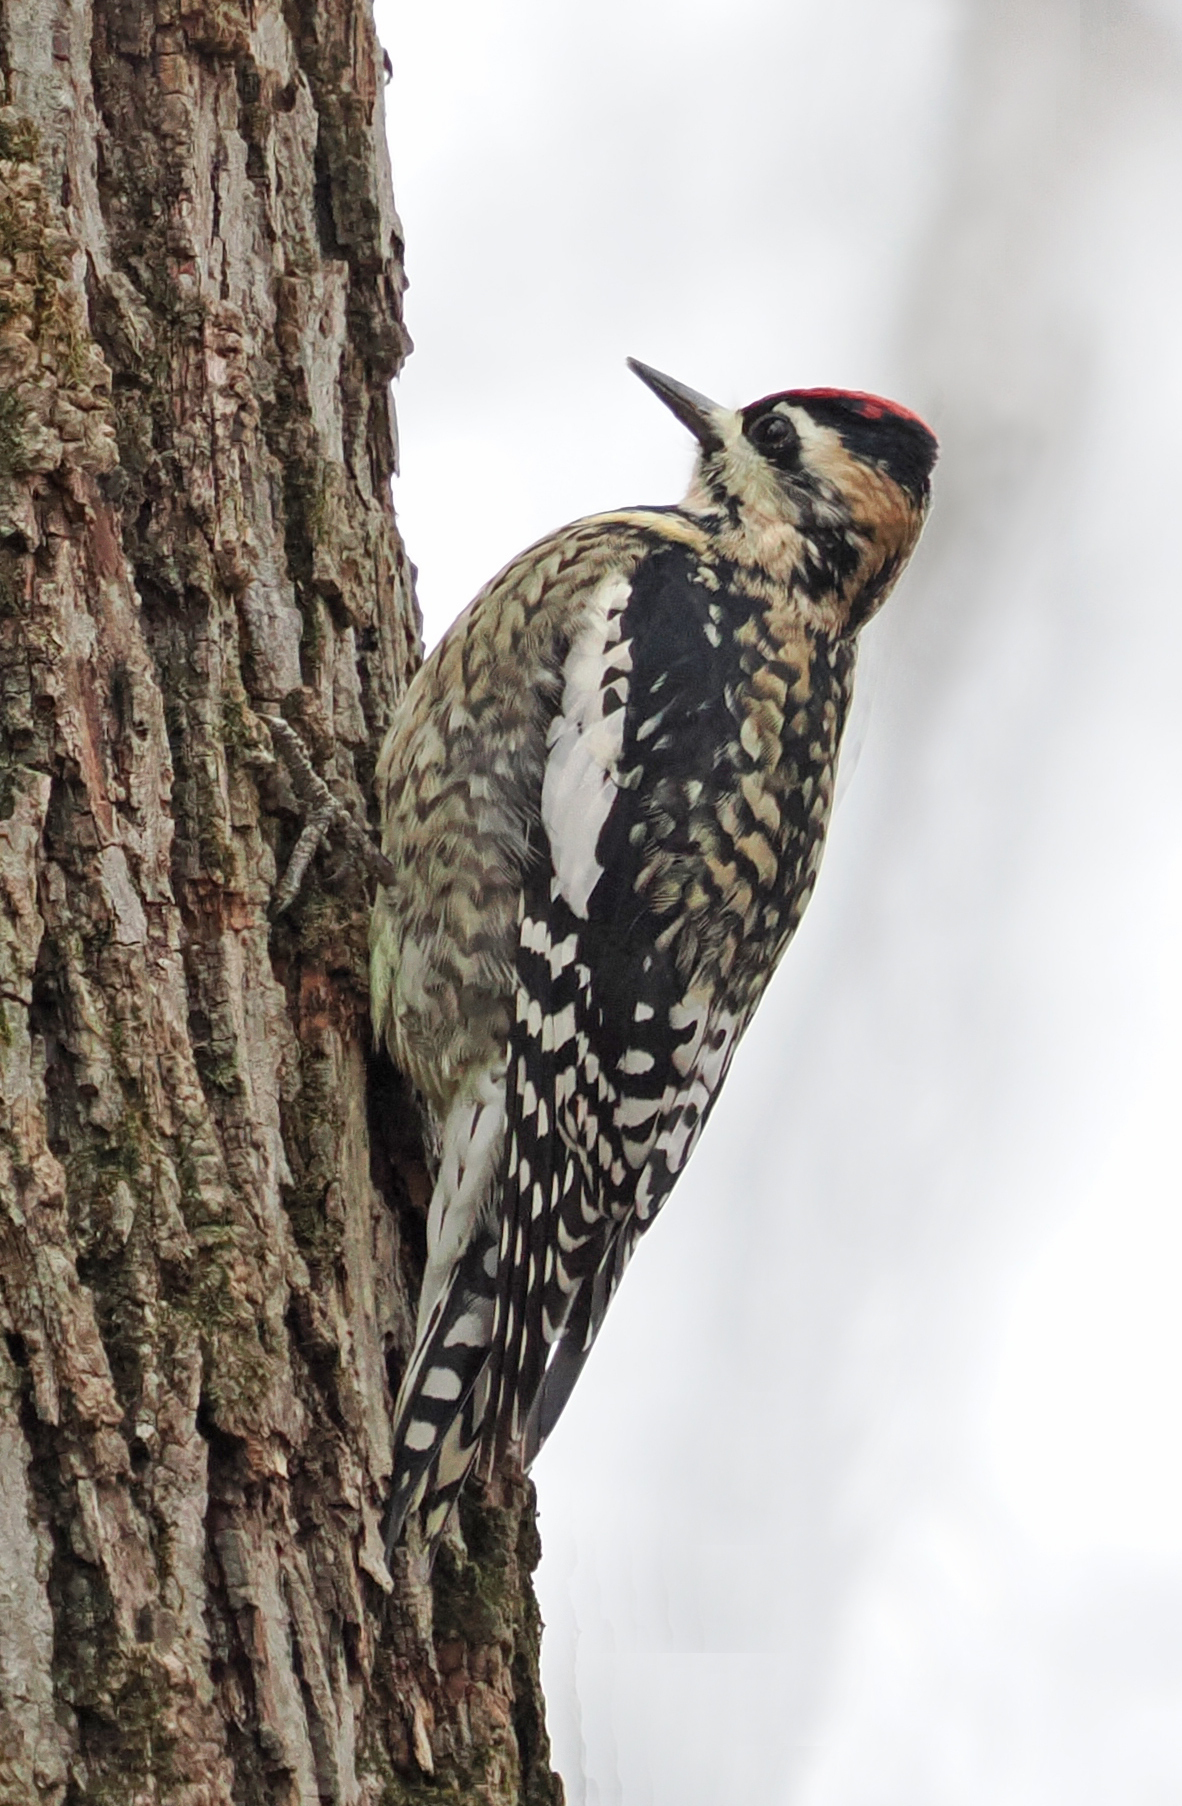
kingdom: Animalia
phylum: Chordata
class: Aves
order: Piciformes
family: Picidae
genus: Sphyrapicus
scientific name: Sphyrapicus varius
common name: Yellow-bellied sapsucker
